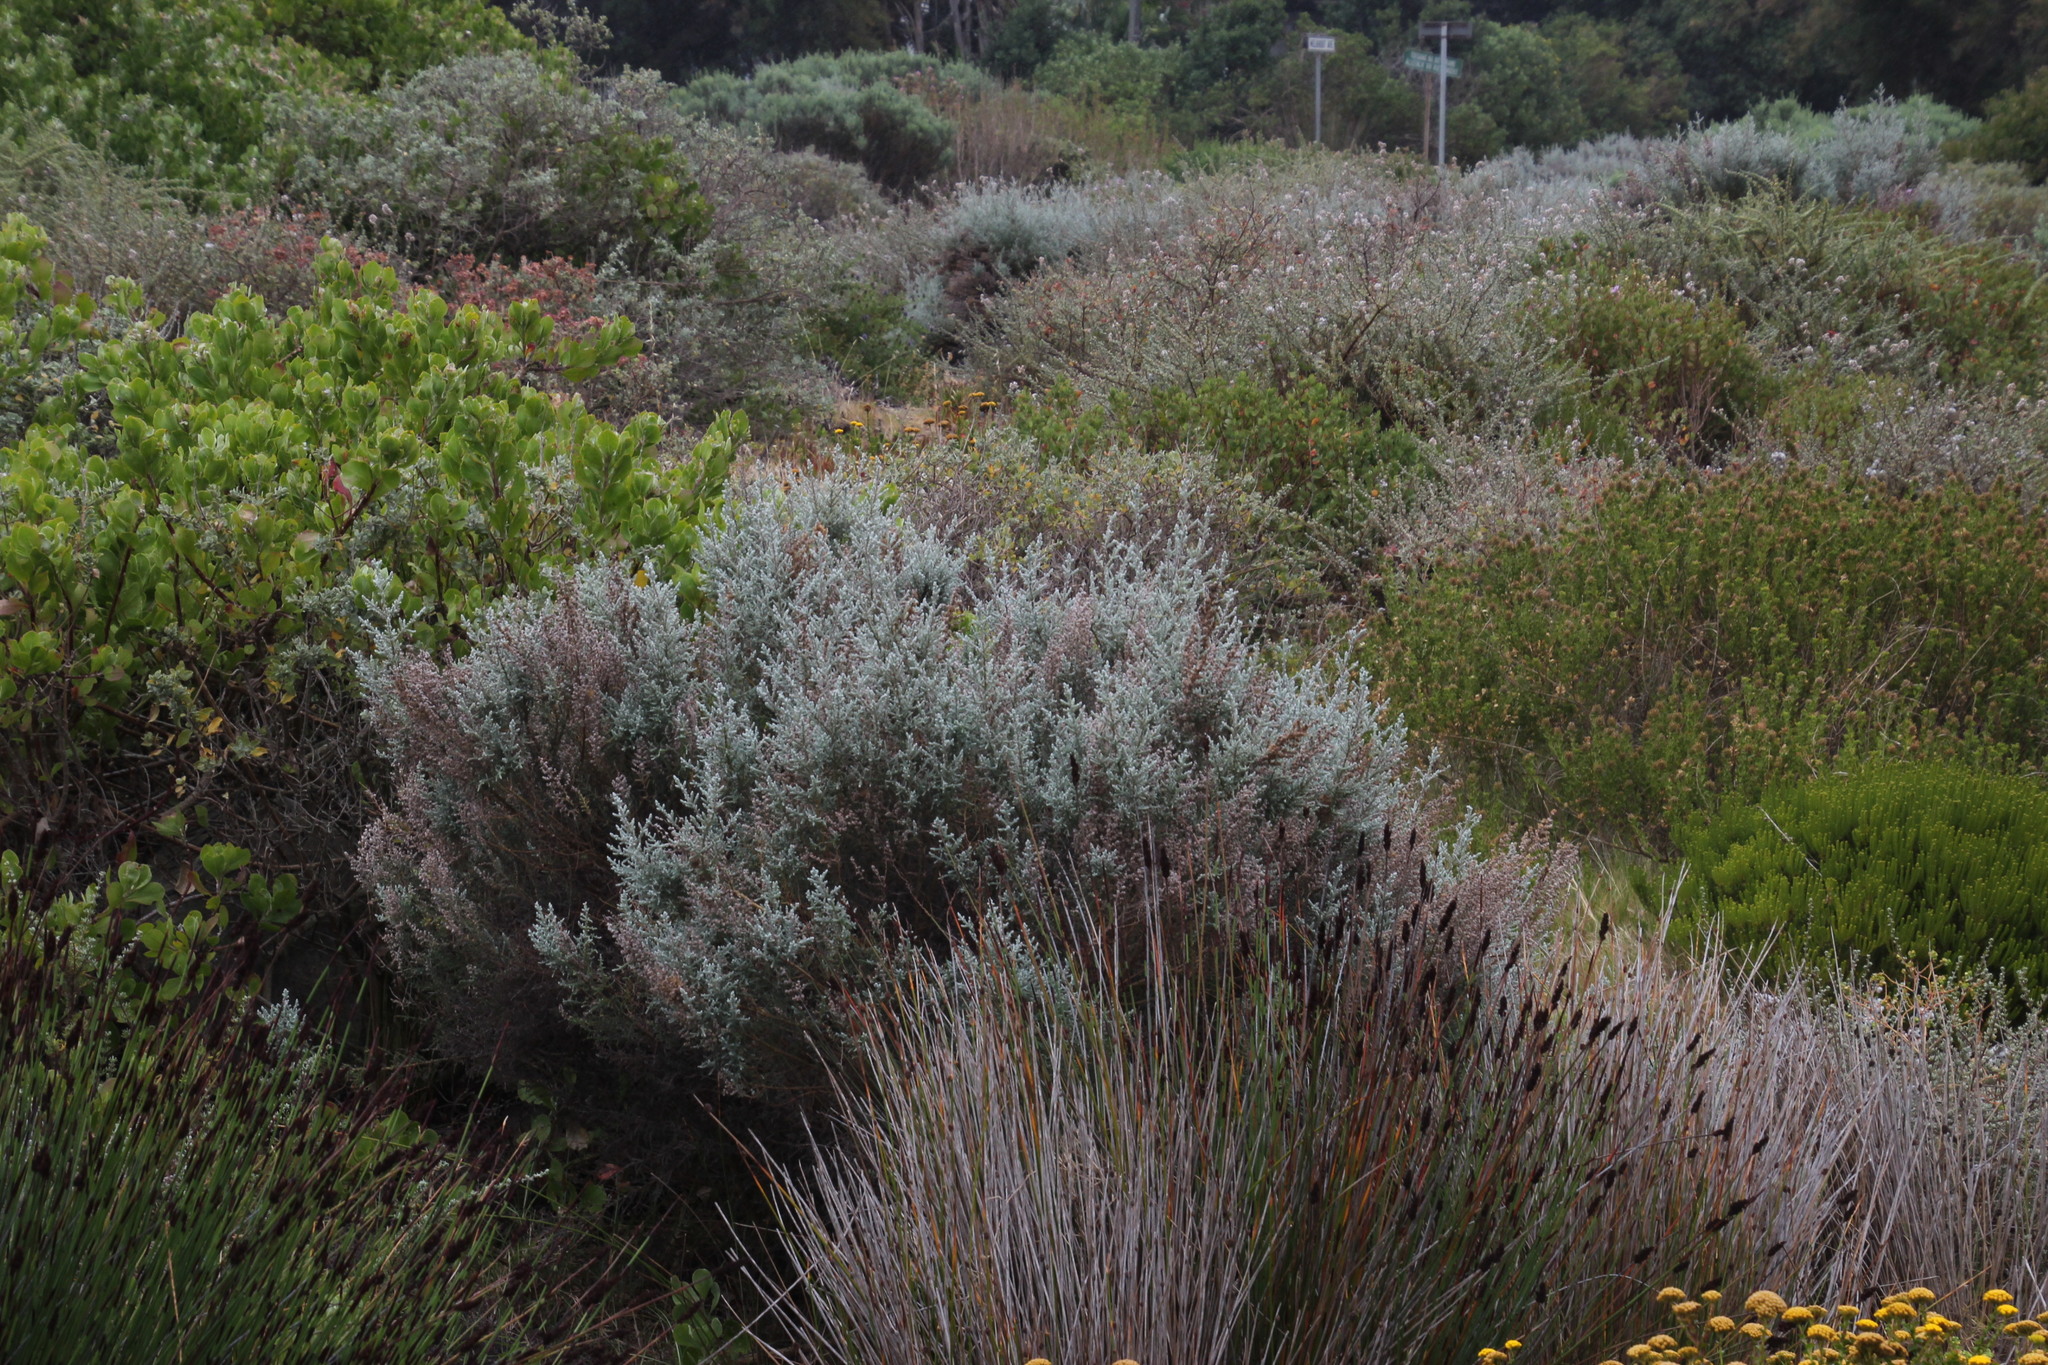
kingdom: Plantae
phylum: Tracheophyta
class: Magnoliopsida
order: Asterales
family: Asteraceae
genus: Seriphium
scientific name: Seriphium plumosum
